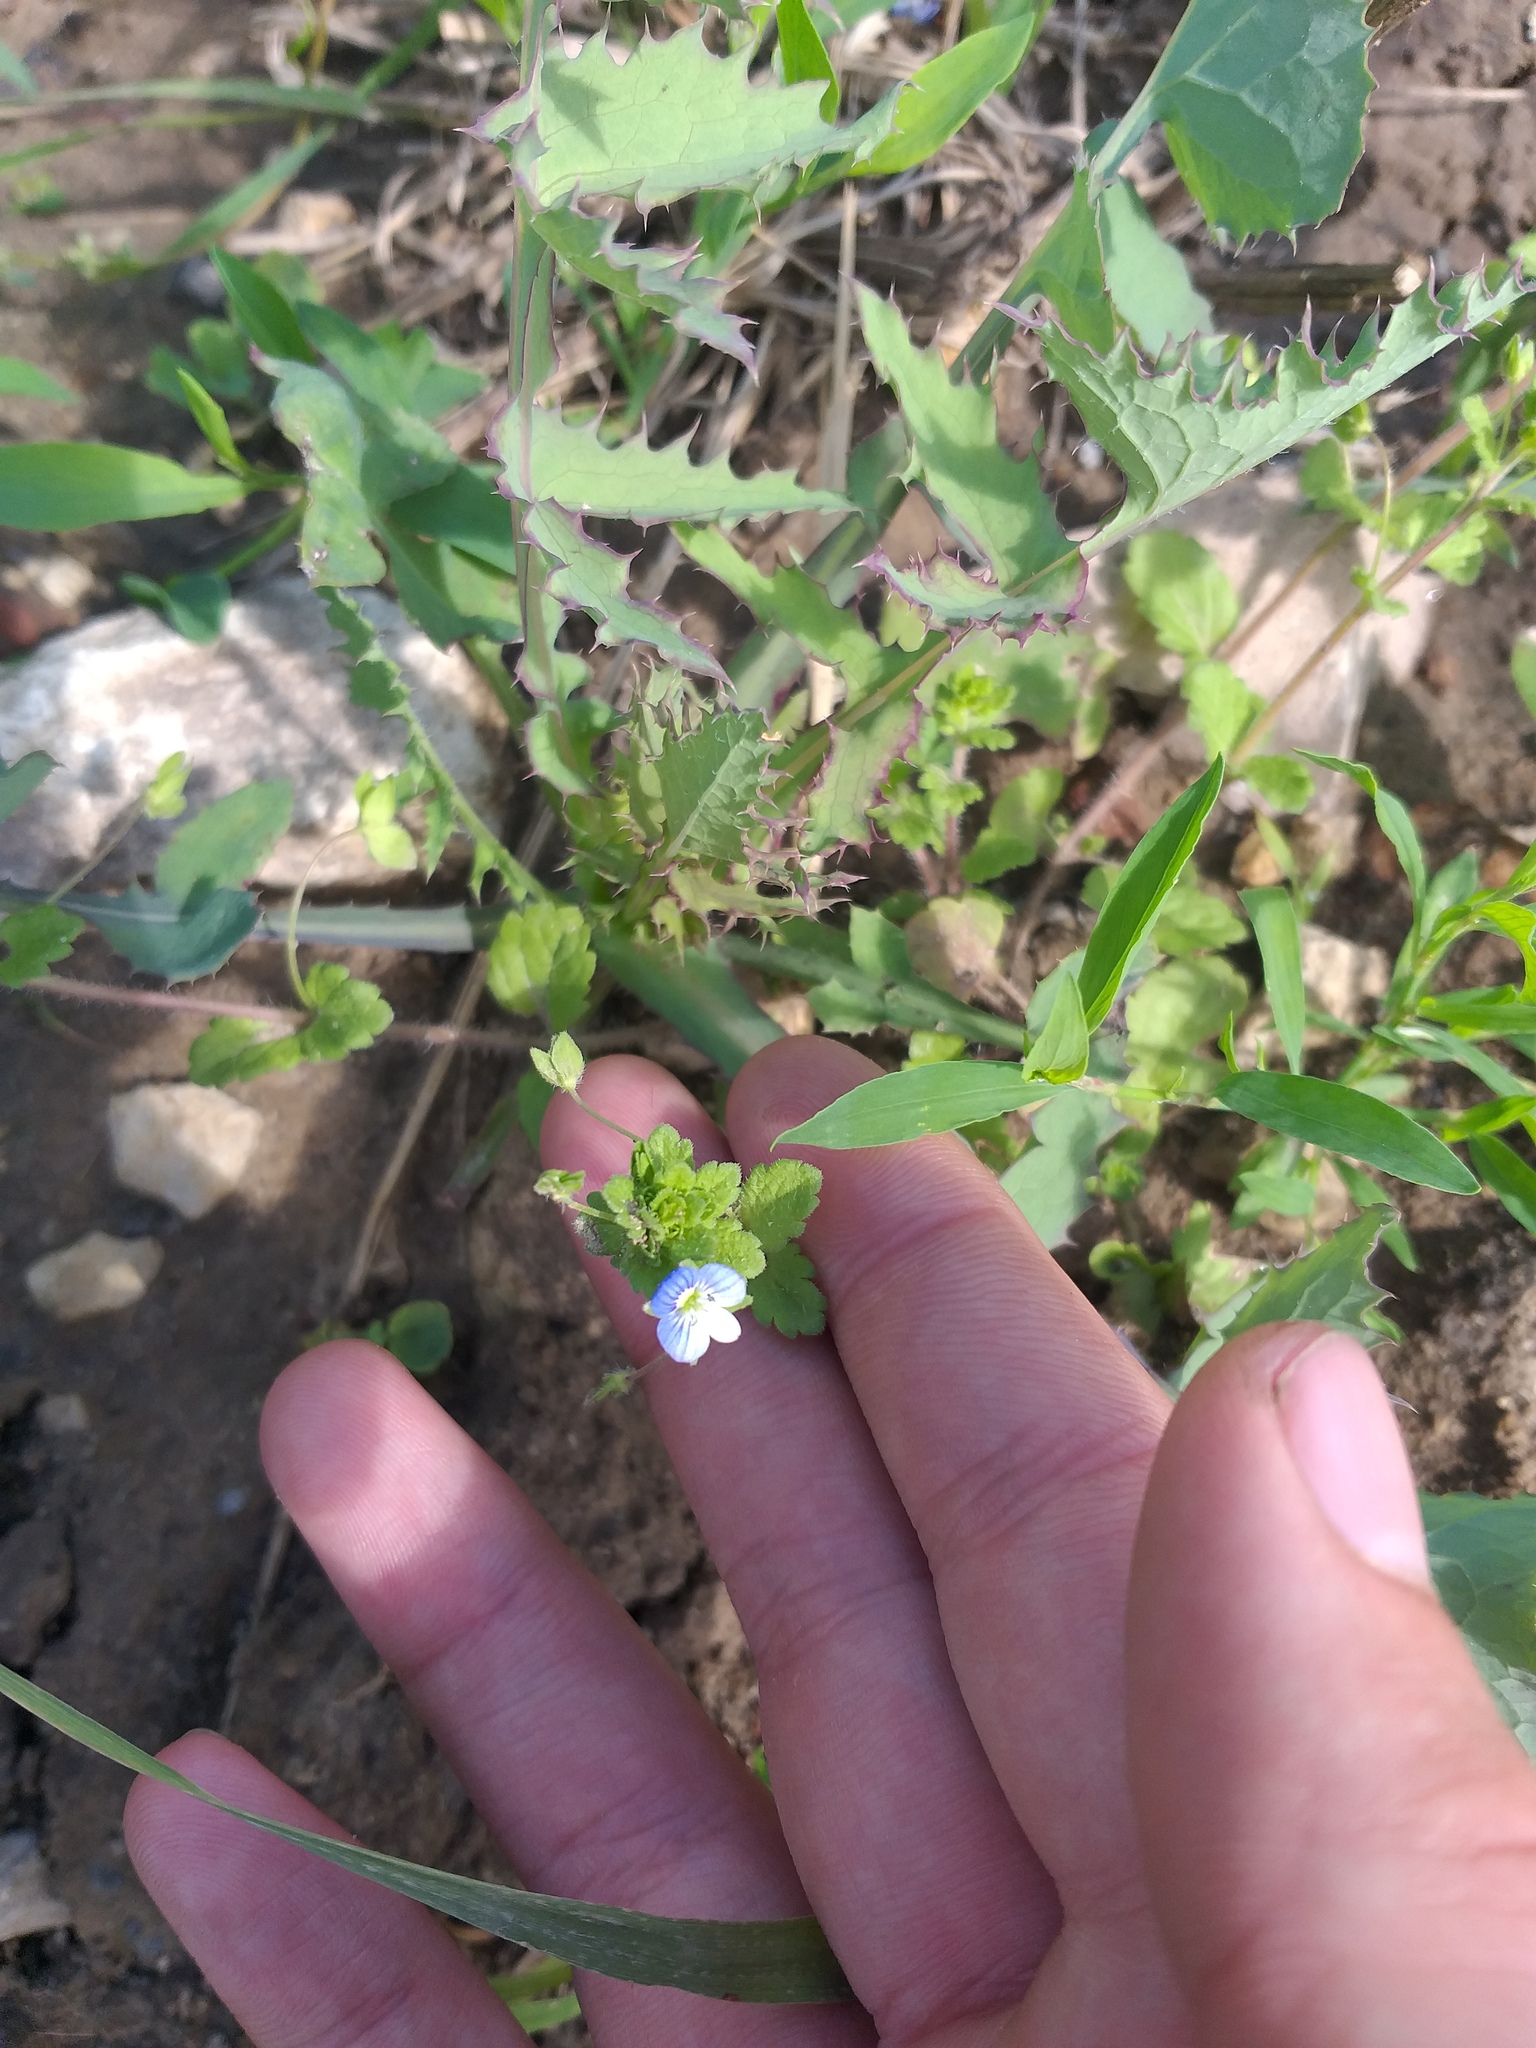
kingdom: Plantae
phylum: Tracheophyta
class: Magnoliopsida
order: Lamiales
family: Plantaginaceae
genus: Veronica
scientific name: Veronica persica
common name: Common field-speedwell
